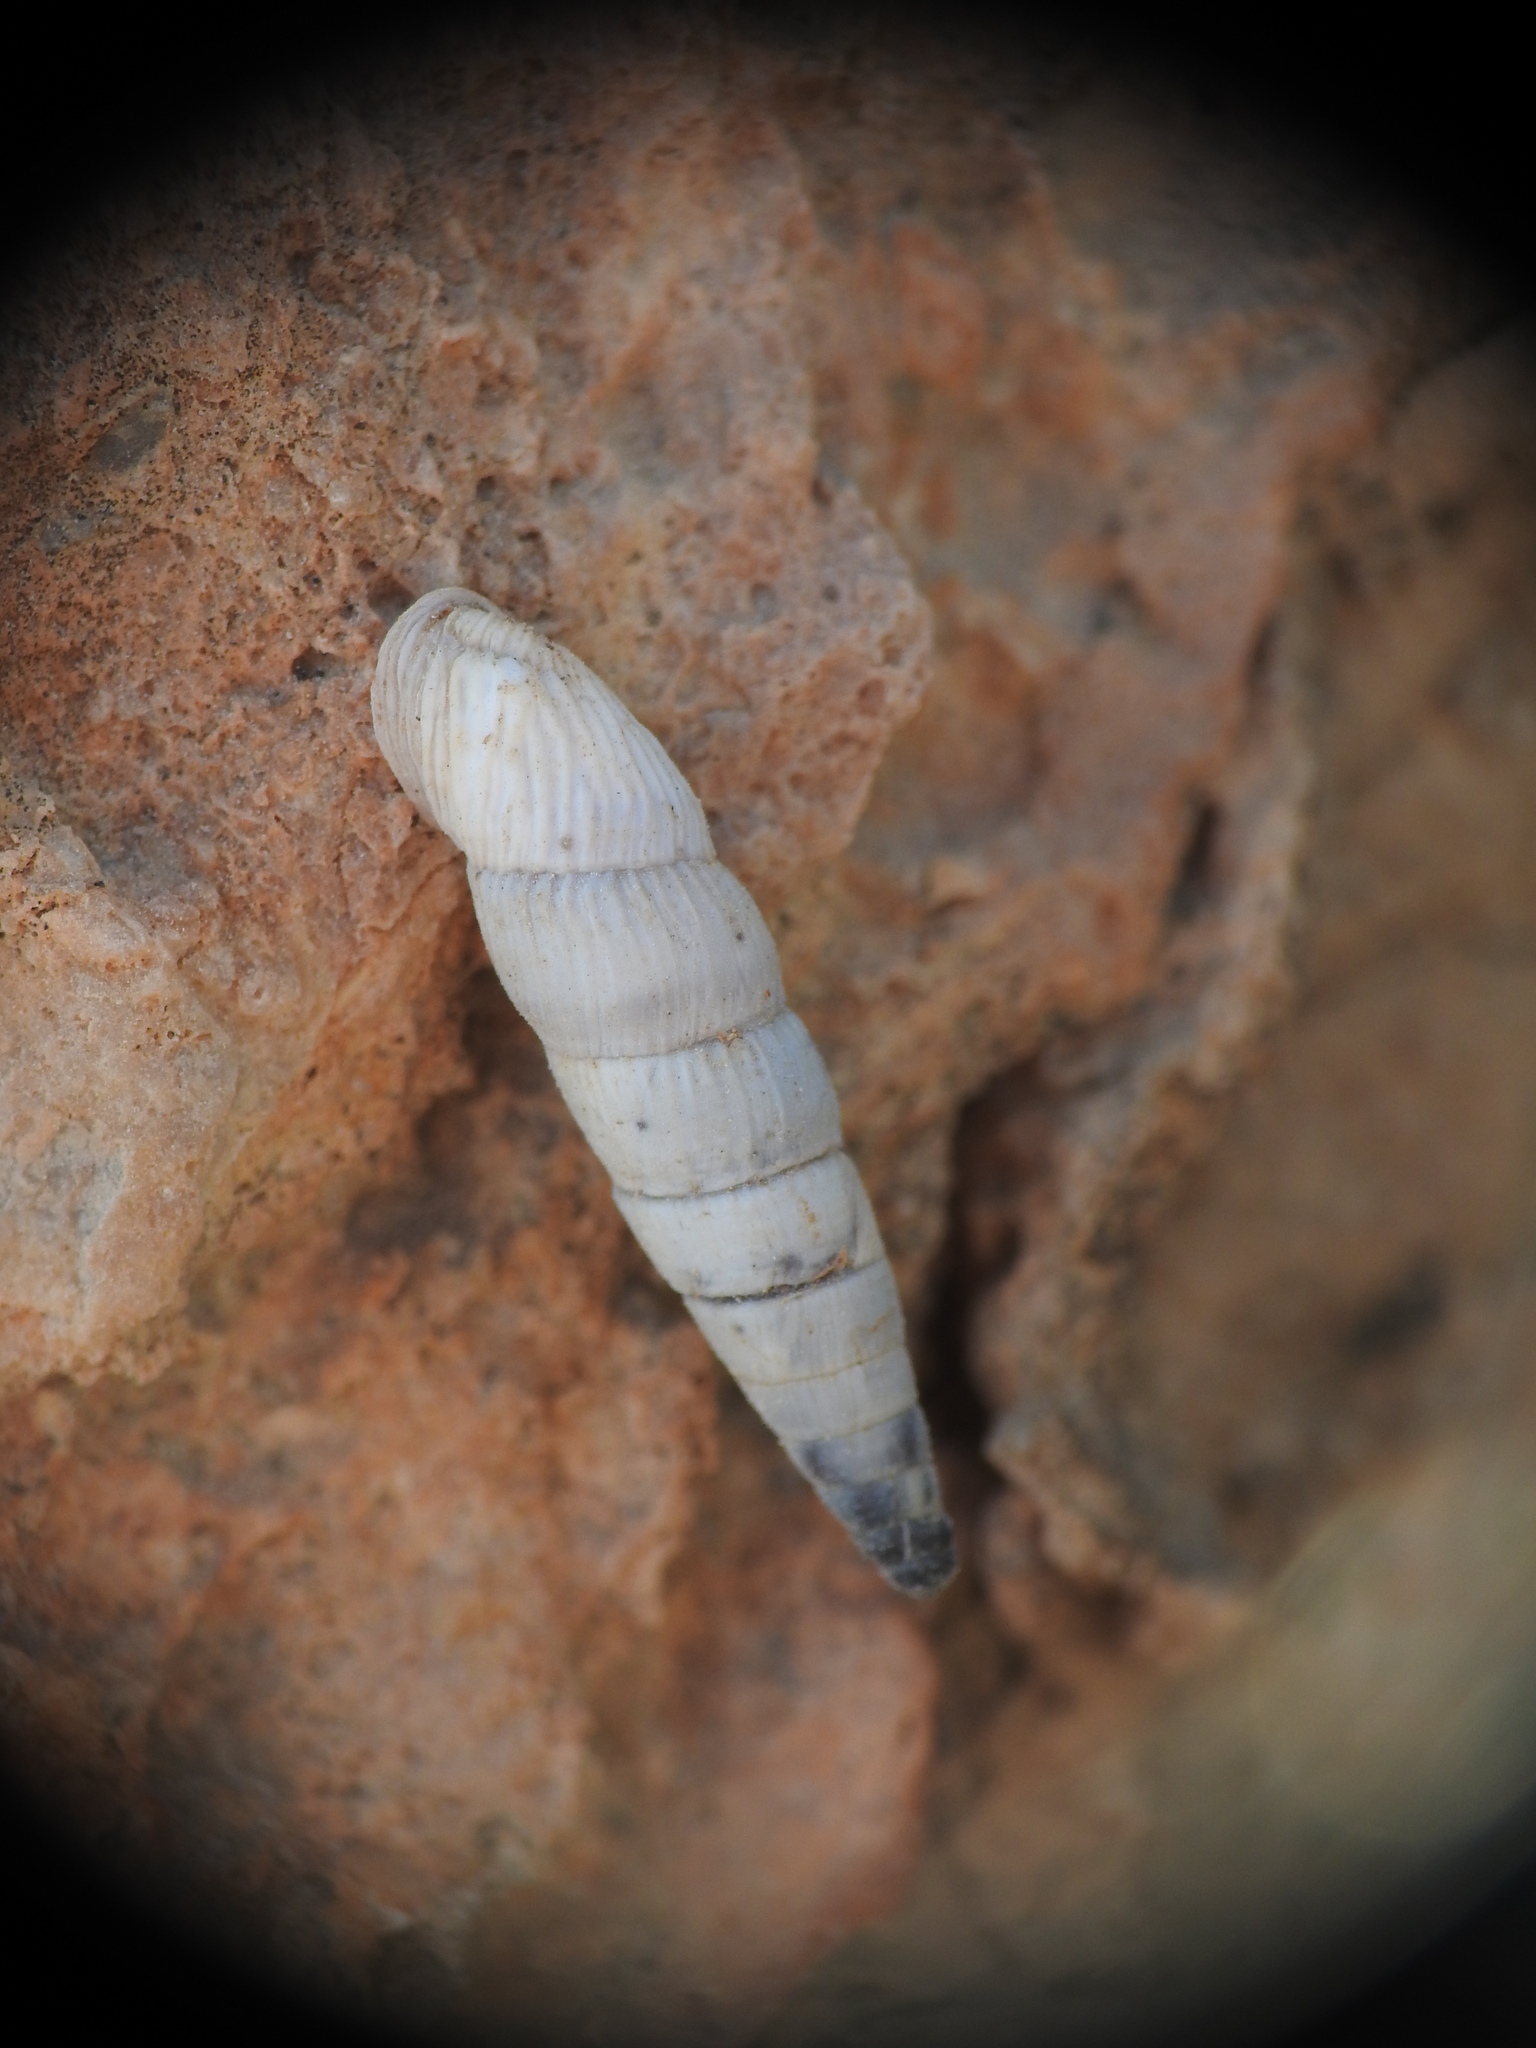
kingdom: Animalia
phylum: Mollusca
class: Gastropoda
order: Stylommatophora
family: Clausiliidae
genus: Albinaria
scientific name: Albinaria moreletiana
